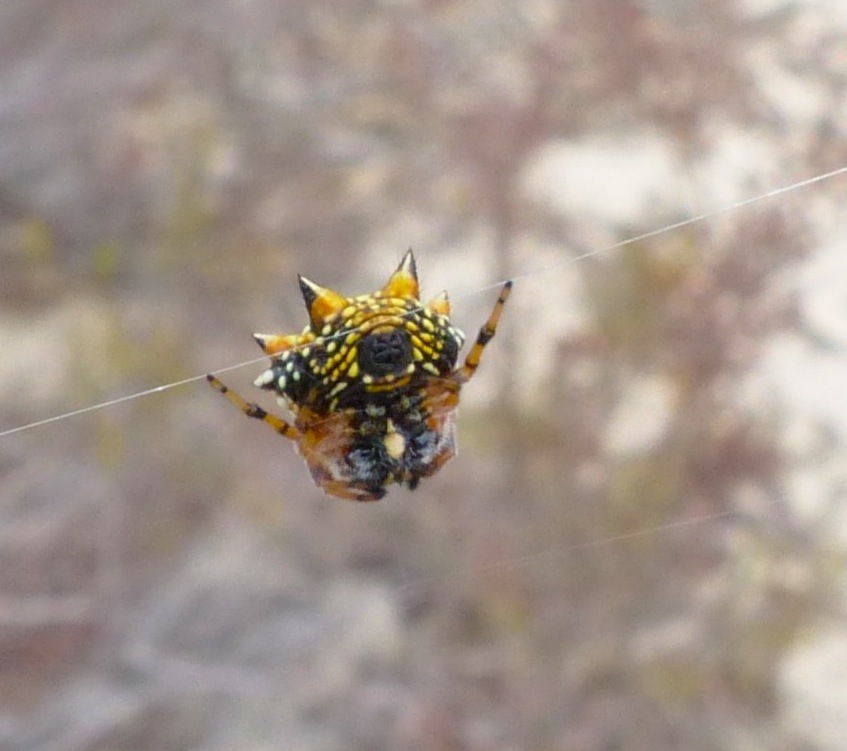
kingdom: Animalia
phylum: Arthropoda
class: Arachnida
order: Araneae
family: Araneidae
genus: Austracantha
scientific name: Austracantha minax
